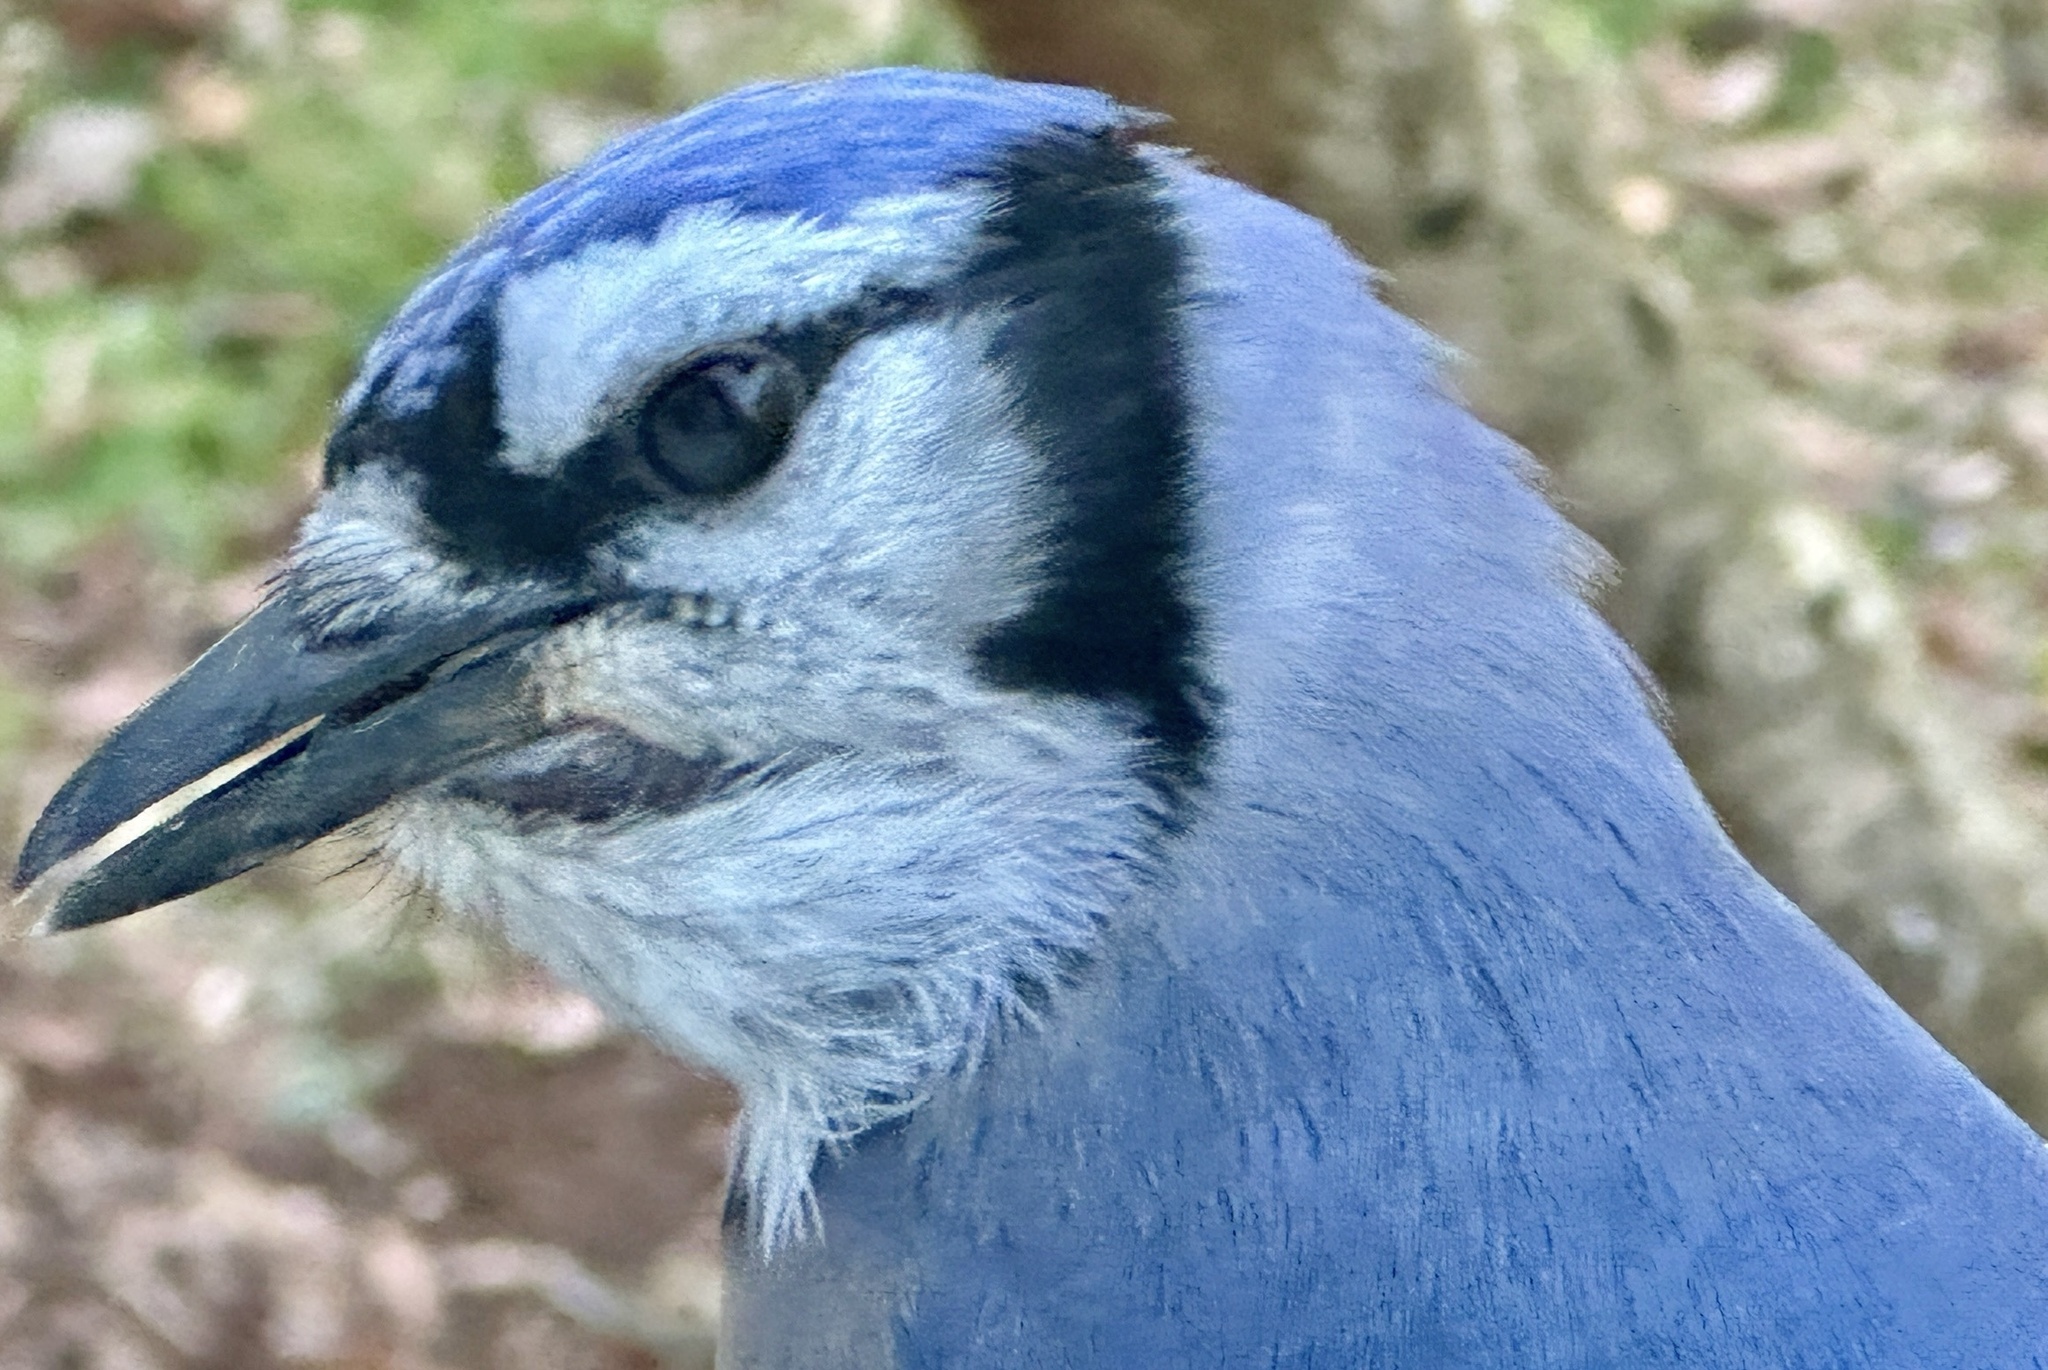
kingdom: Animalia
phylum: Chordata
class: Aves
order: Passeriformes
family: Corvidae
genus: Cyanocitta
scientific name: Cyanocitta cristata
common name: Blue jay
